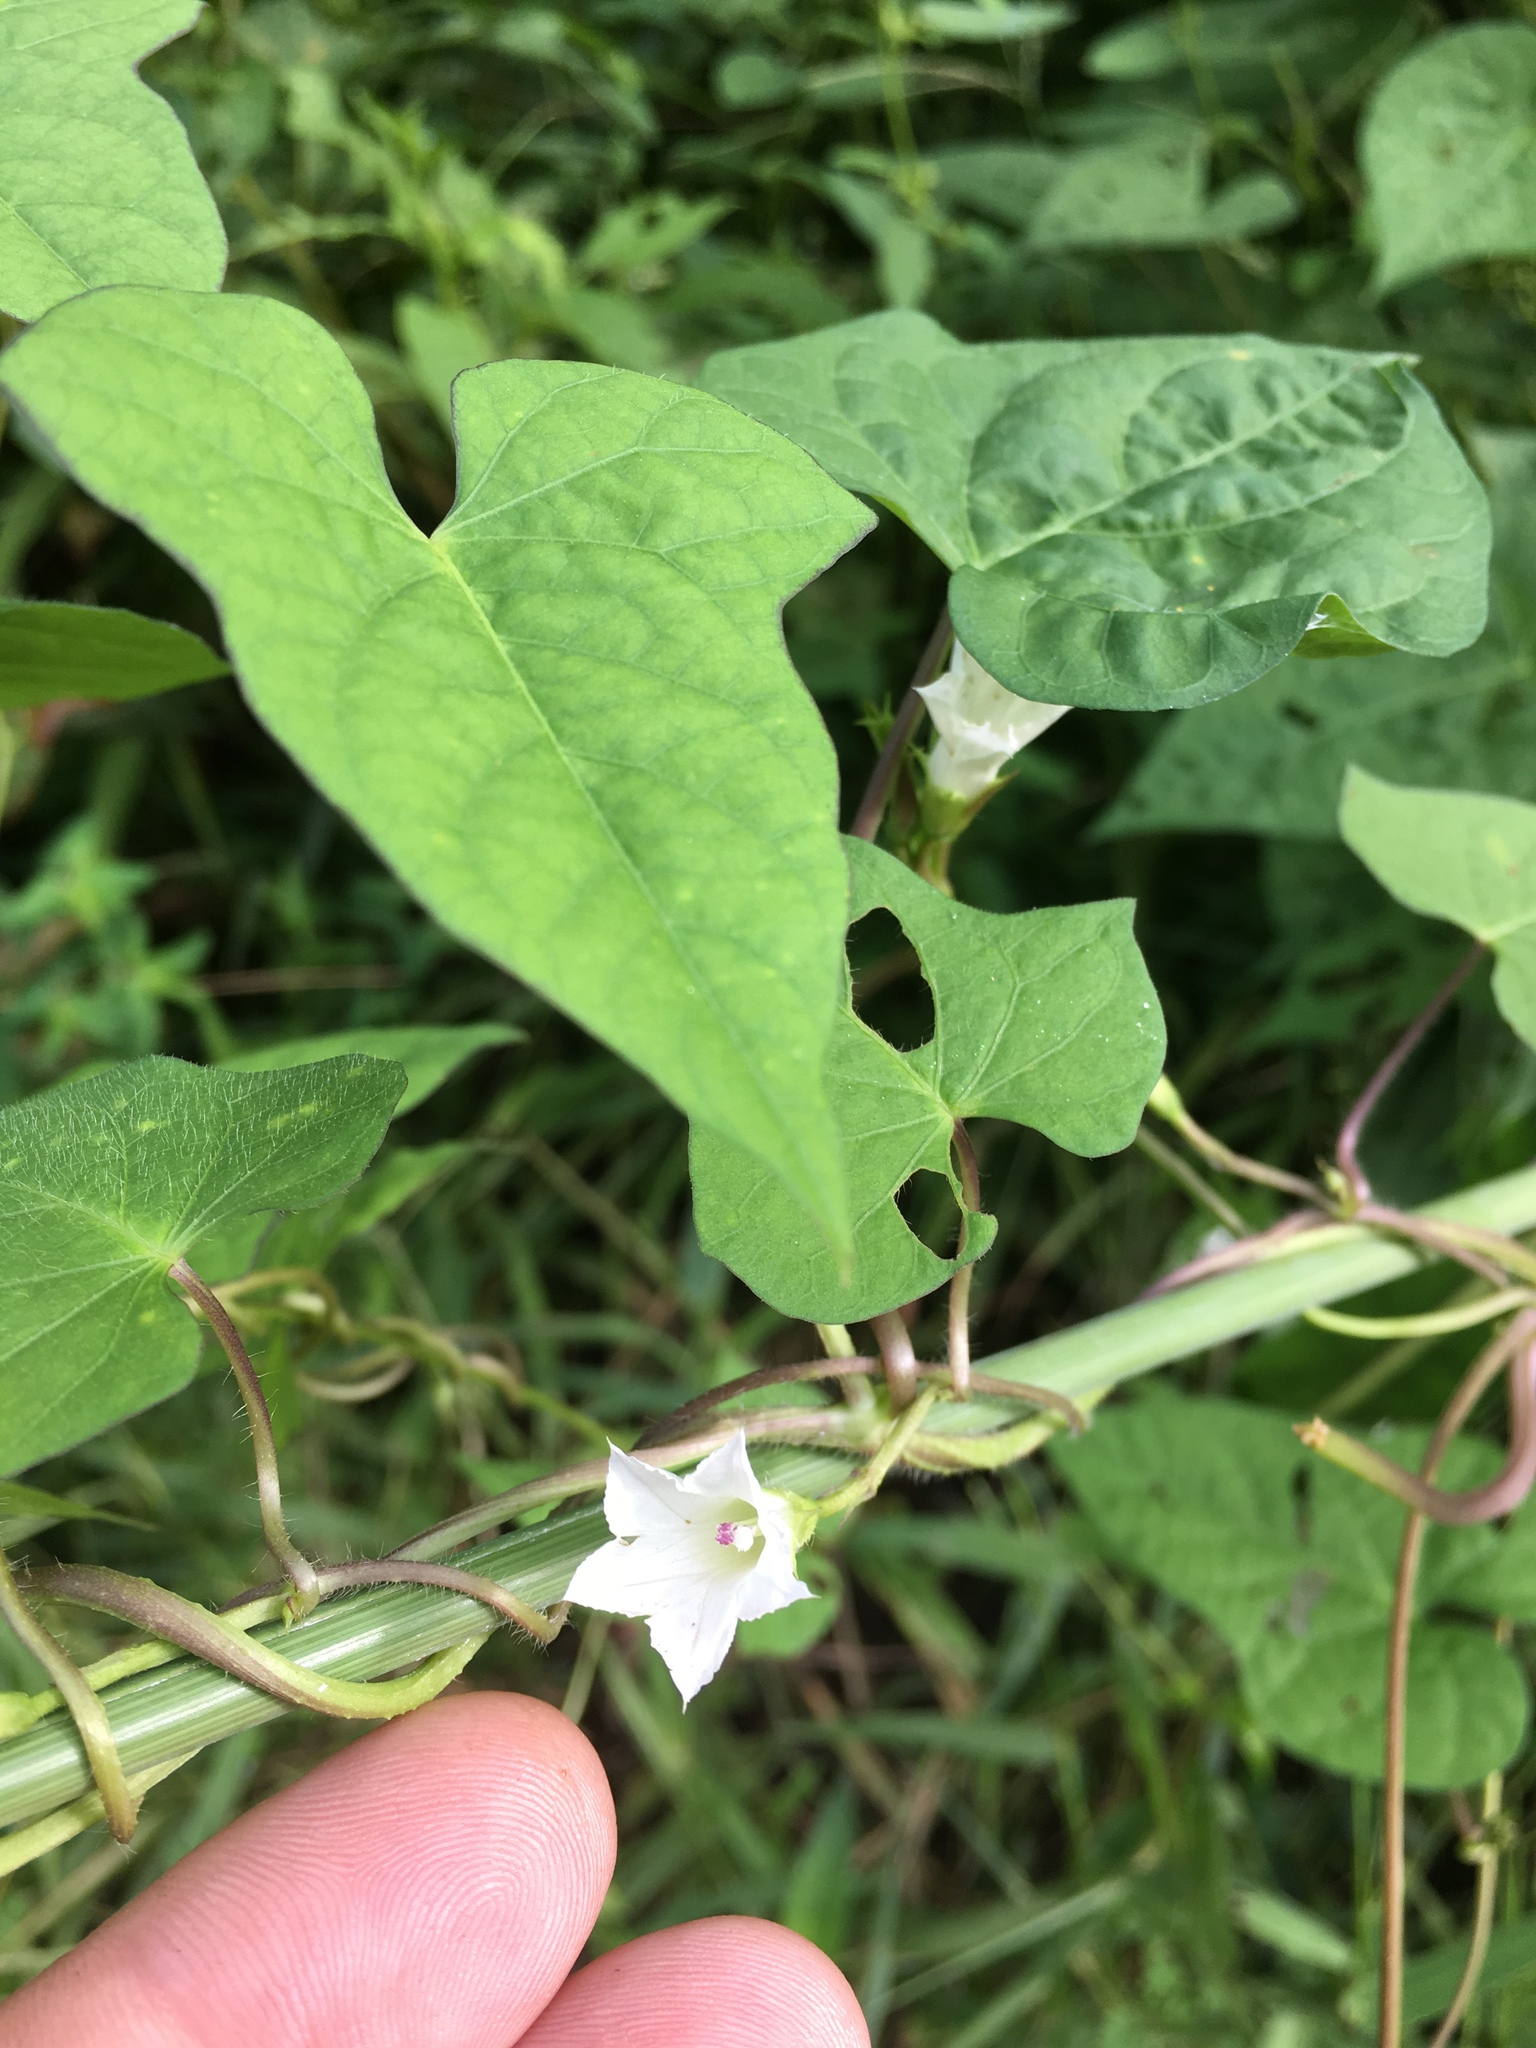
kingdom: Plantae
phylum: Tracheophyta
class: Magnoliopsida
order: Solanales
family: Convolvulaceae
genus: Ipomoea
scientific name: Ipomoea lacunosa
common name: White morning-glory
